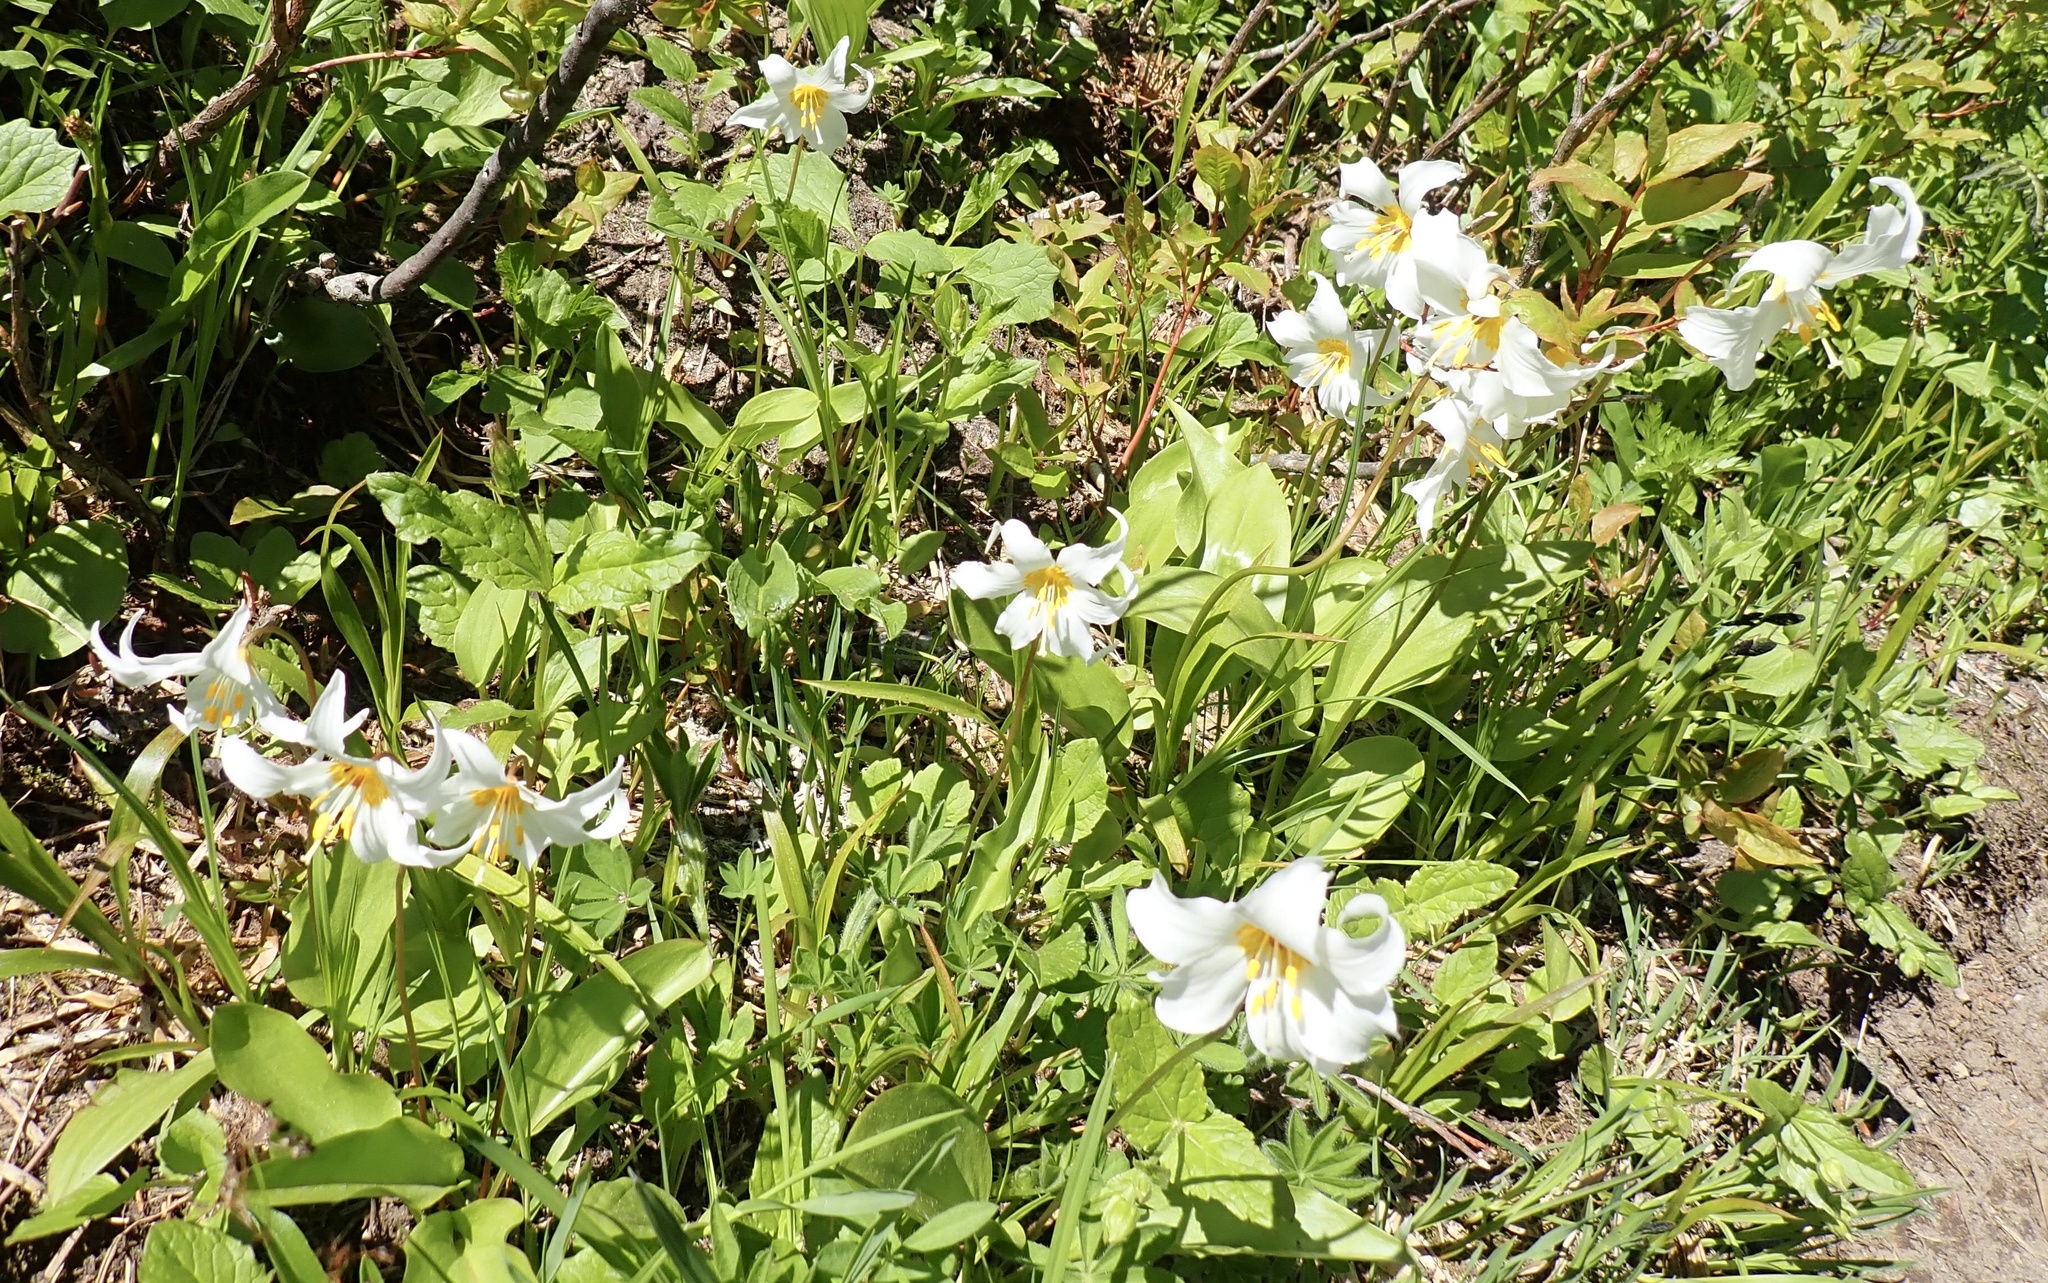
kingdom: Plantae
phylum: Tracheophyta
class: Liliopsida
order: Liliales
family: Liliaceae
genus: Erythronium
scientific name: Erythronium montanum
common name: Avalanche lily
